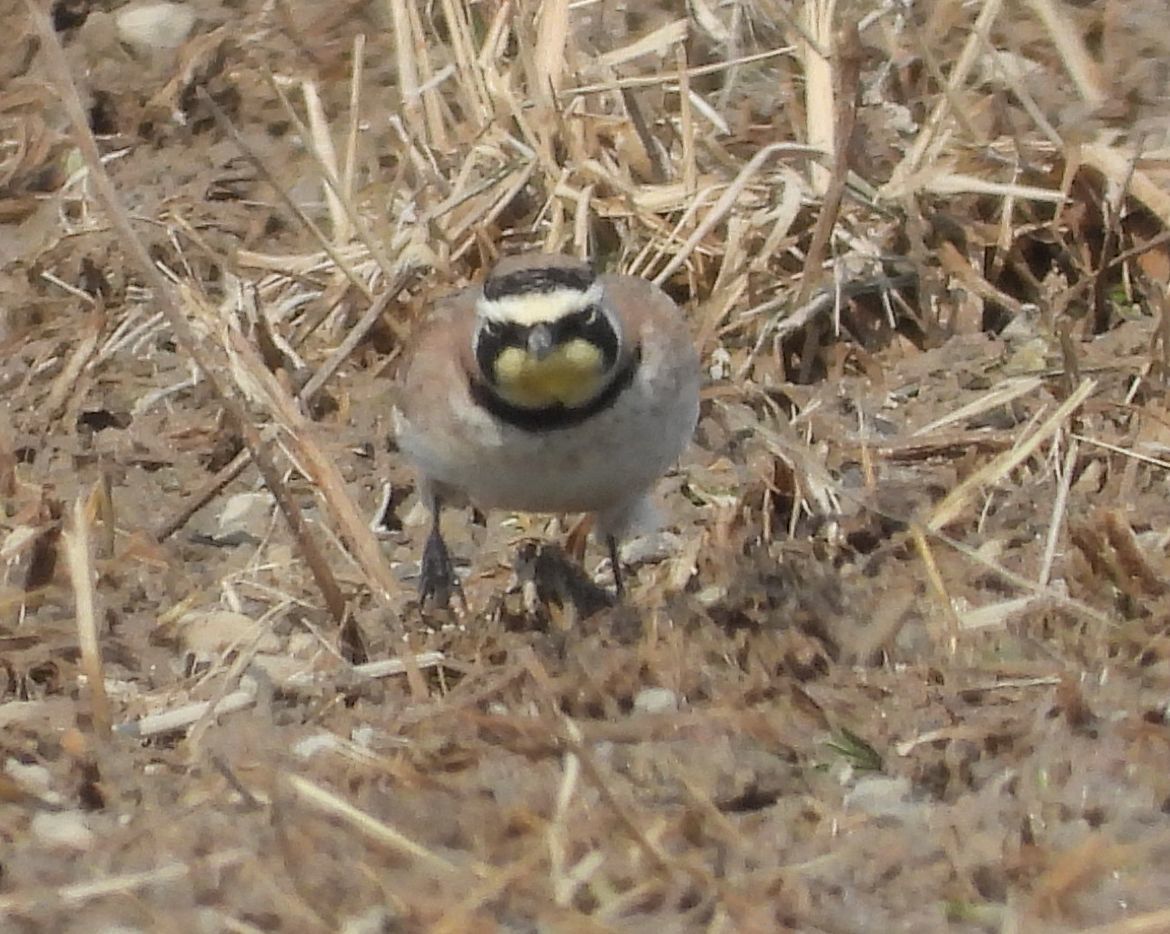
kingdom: Animalia
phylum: Chordata
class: Aves
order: Passeriformes
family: Alaudidae
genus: Eremophila
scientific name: Eremophila alpestris
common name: Horned lark
